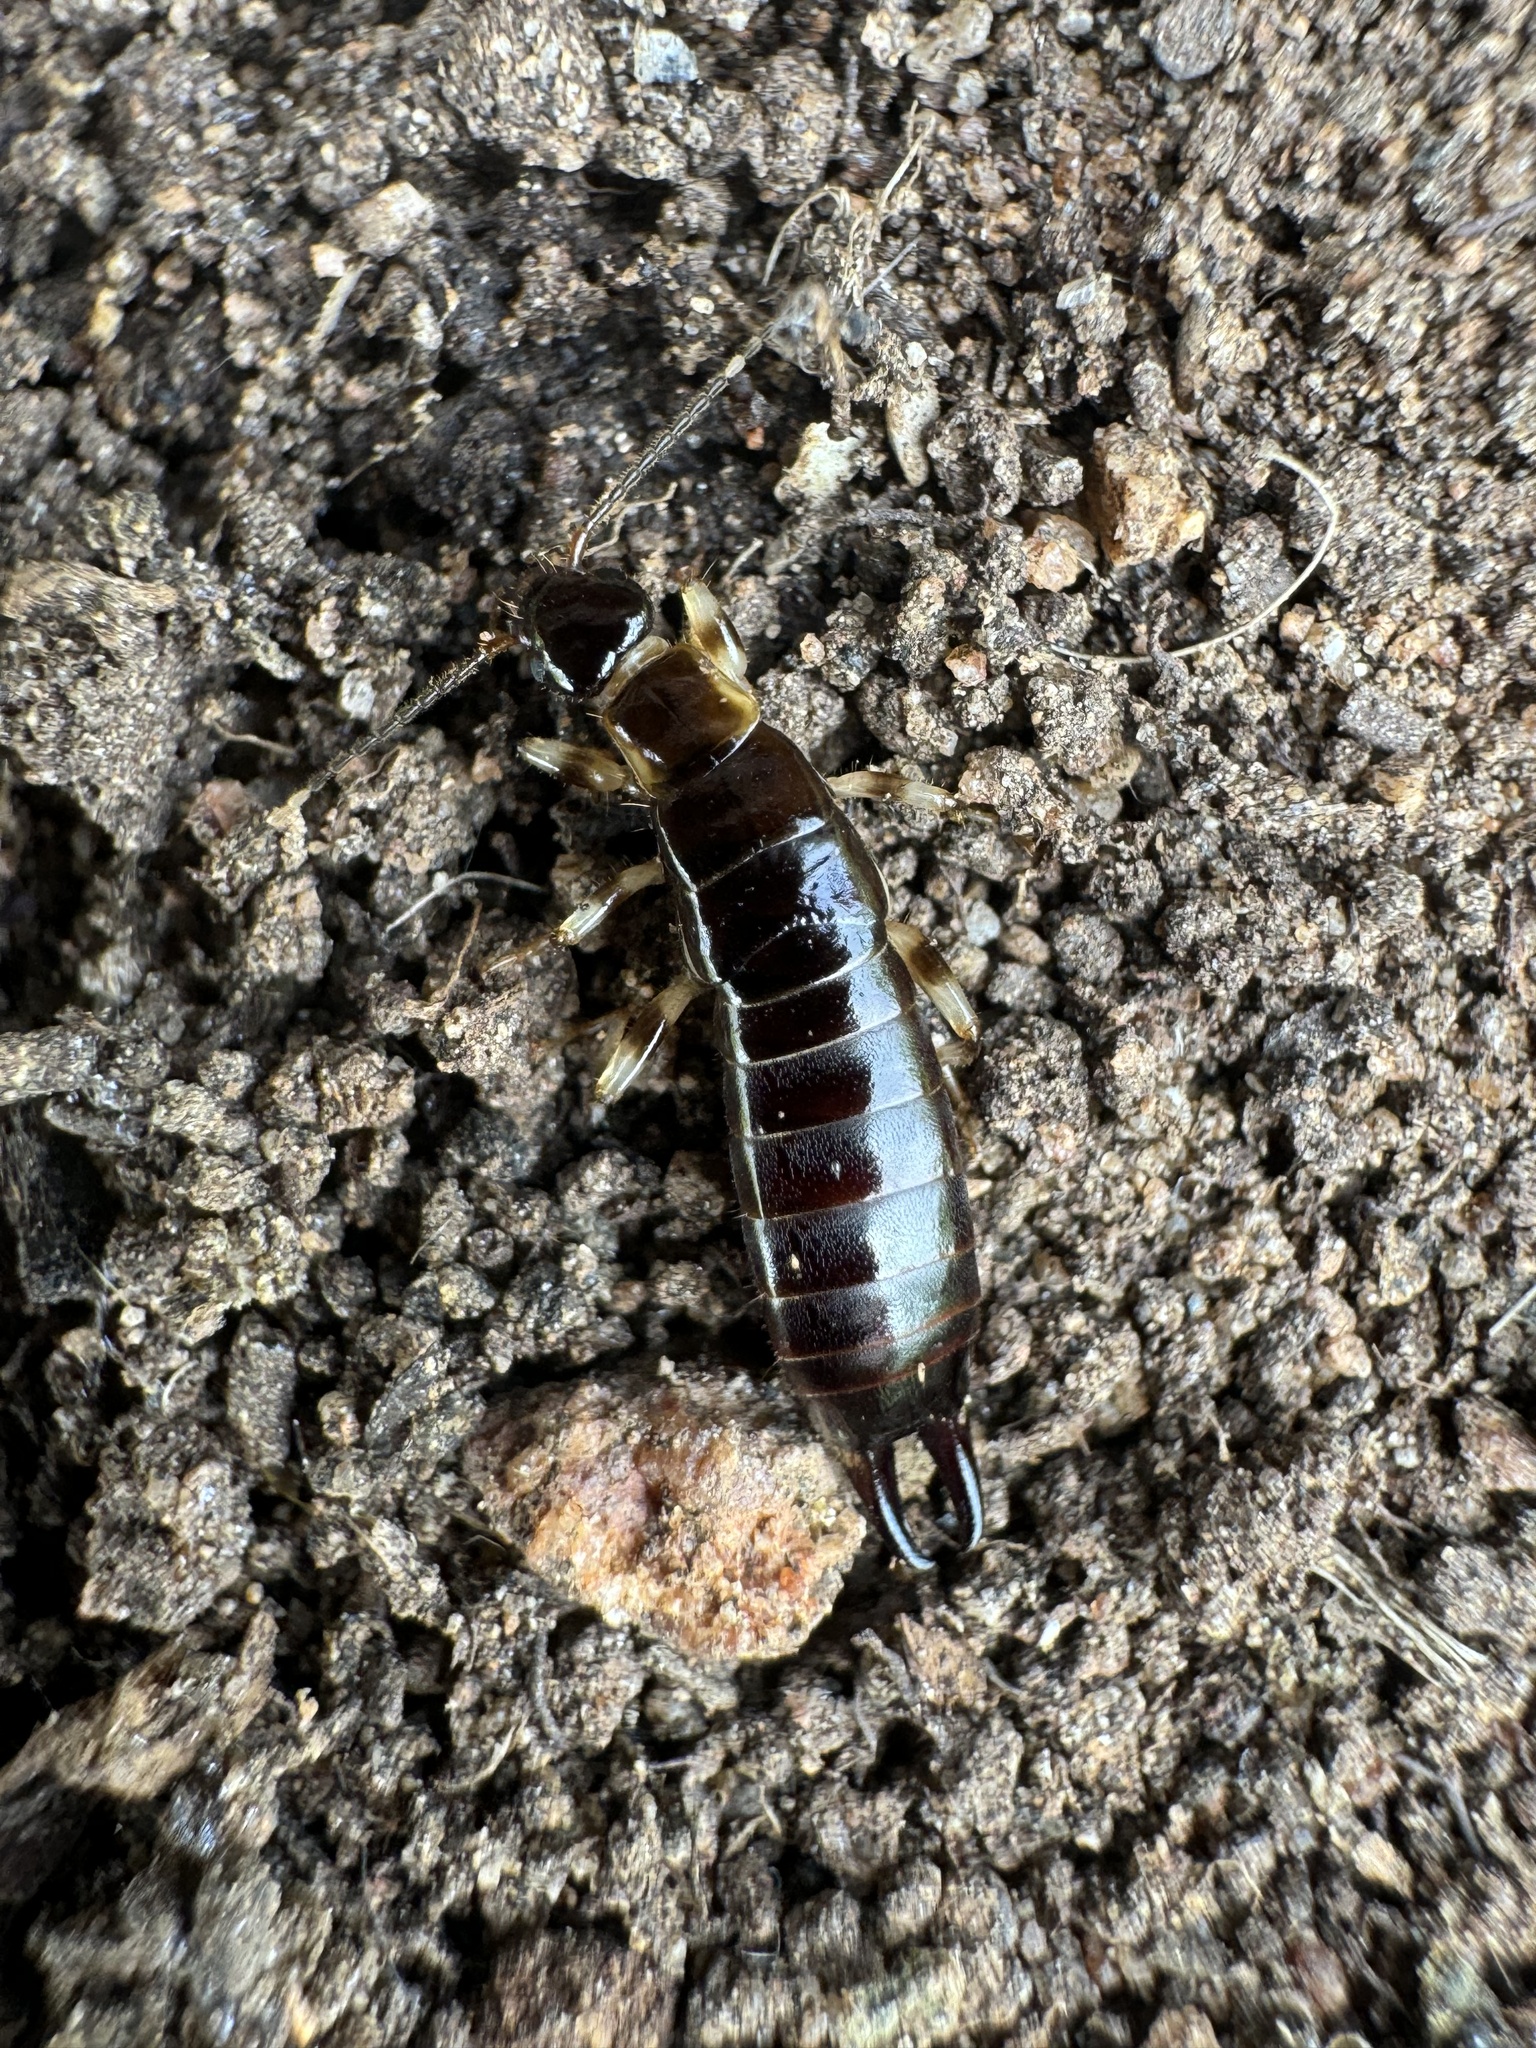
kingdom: Animalia
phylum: Arthropoda
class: Insecta
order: Dermaptera
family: Anisolabididae
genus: Euborellia
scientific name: Euborellia annulipes
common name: Ringlegged earwig
